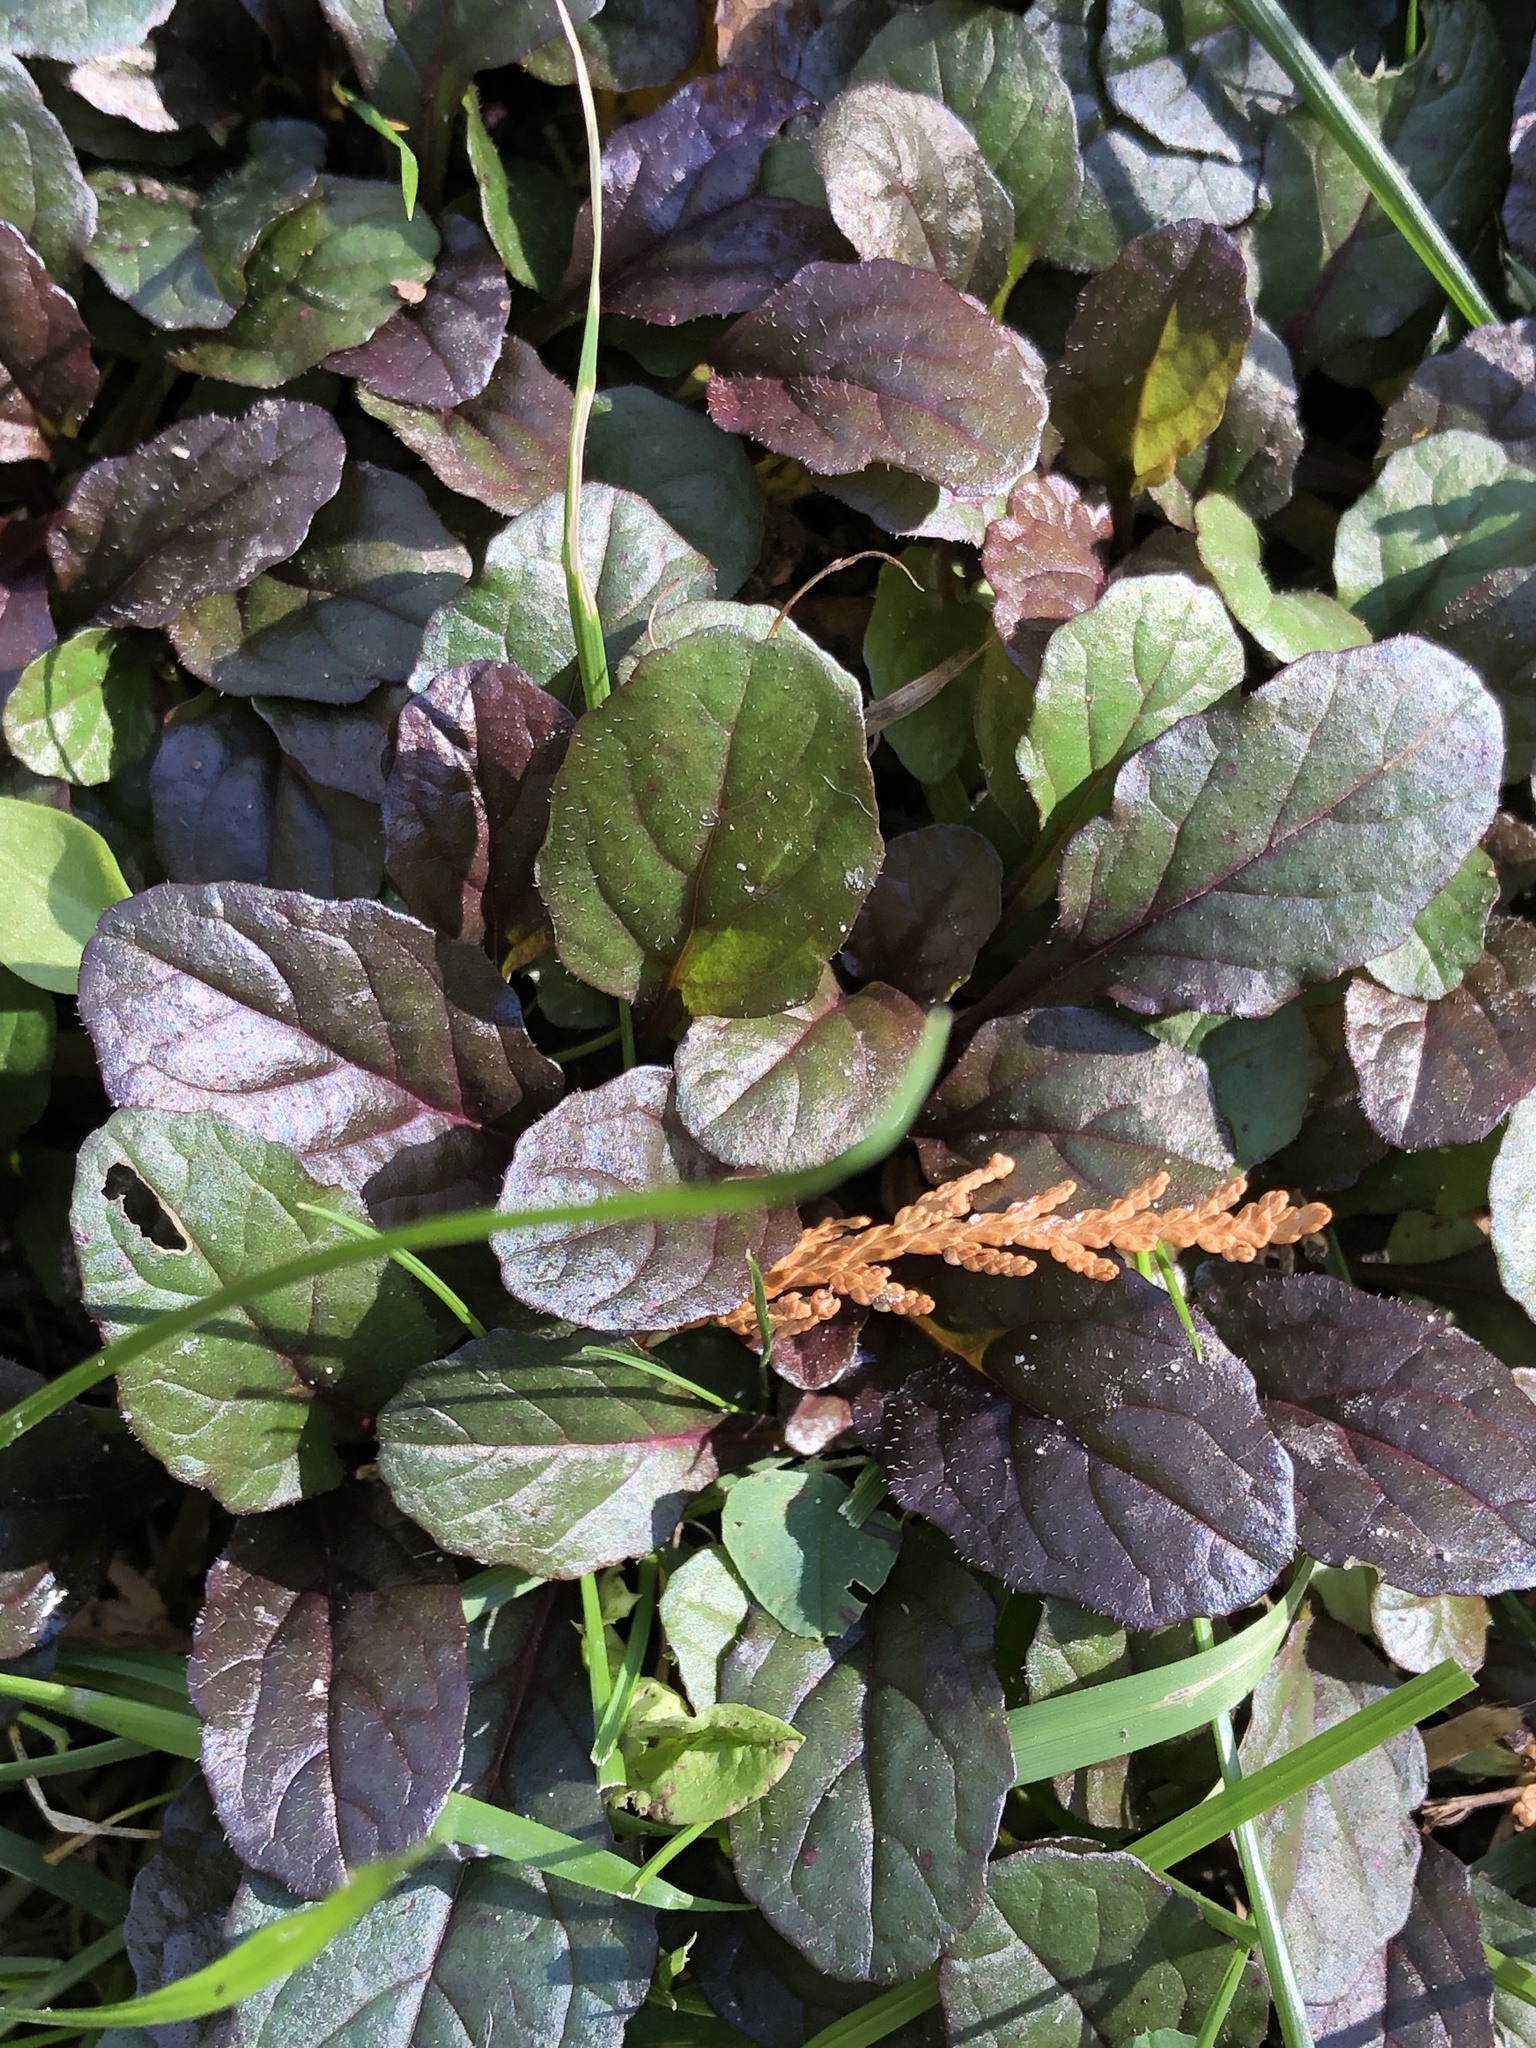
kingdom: Plantae
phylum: Tracheophyta
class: Magnoliopsida
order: Lamiales
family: Lamiaceae
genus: Ajuga
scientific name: Ajuga reptans
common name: Bugle
